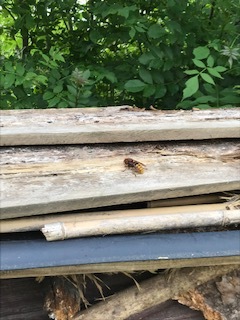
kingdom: Animalia
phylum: Arthropoda
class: Insecta
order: Hymenoptera
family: Vespidae
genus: Vespa
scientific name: Vespa crabro
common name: Hornet
